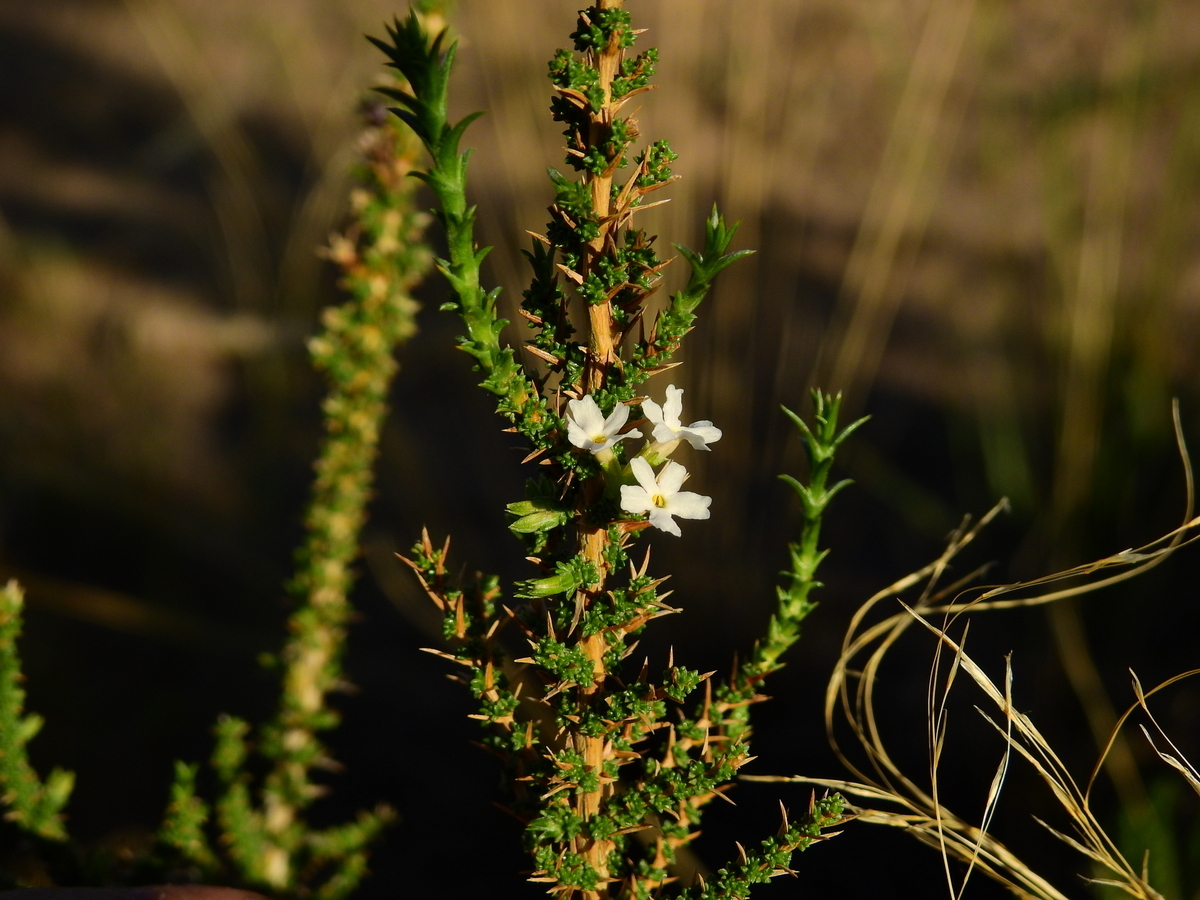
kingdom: Plantae
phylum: Tracheophyta
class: Magnoliopsida
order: Lamiales
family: Verbenaceae
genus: Junellia
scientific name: Junellia seriphioides
